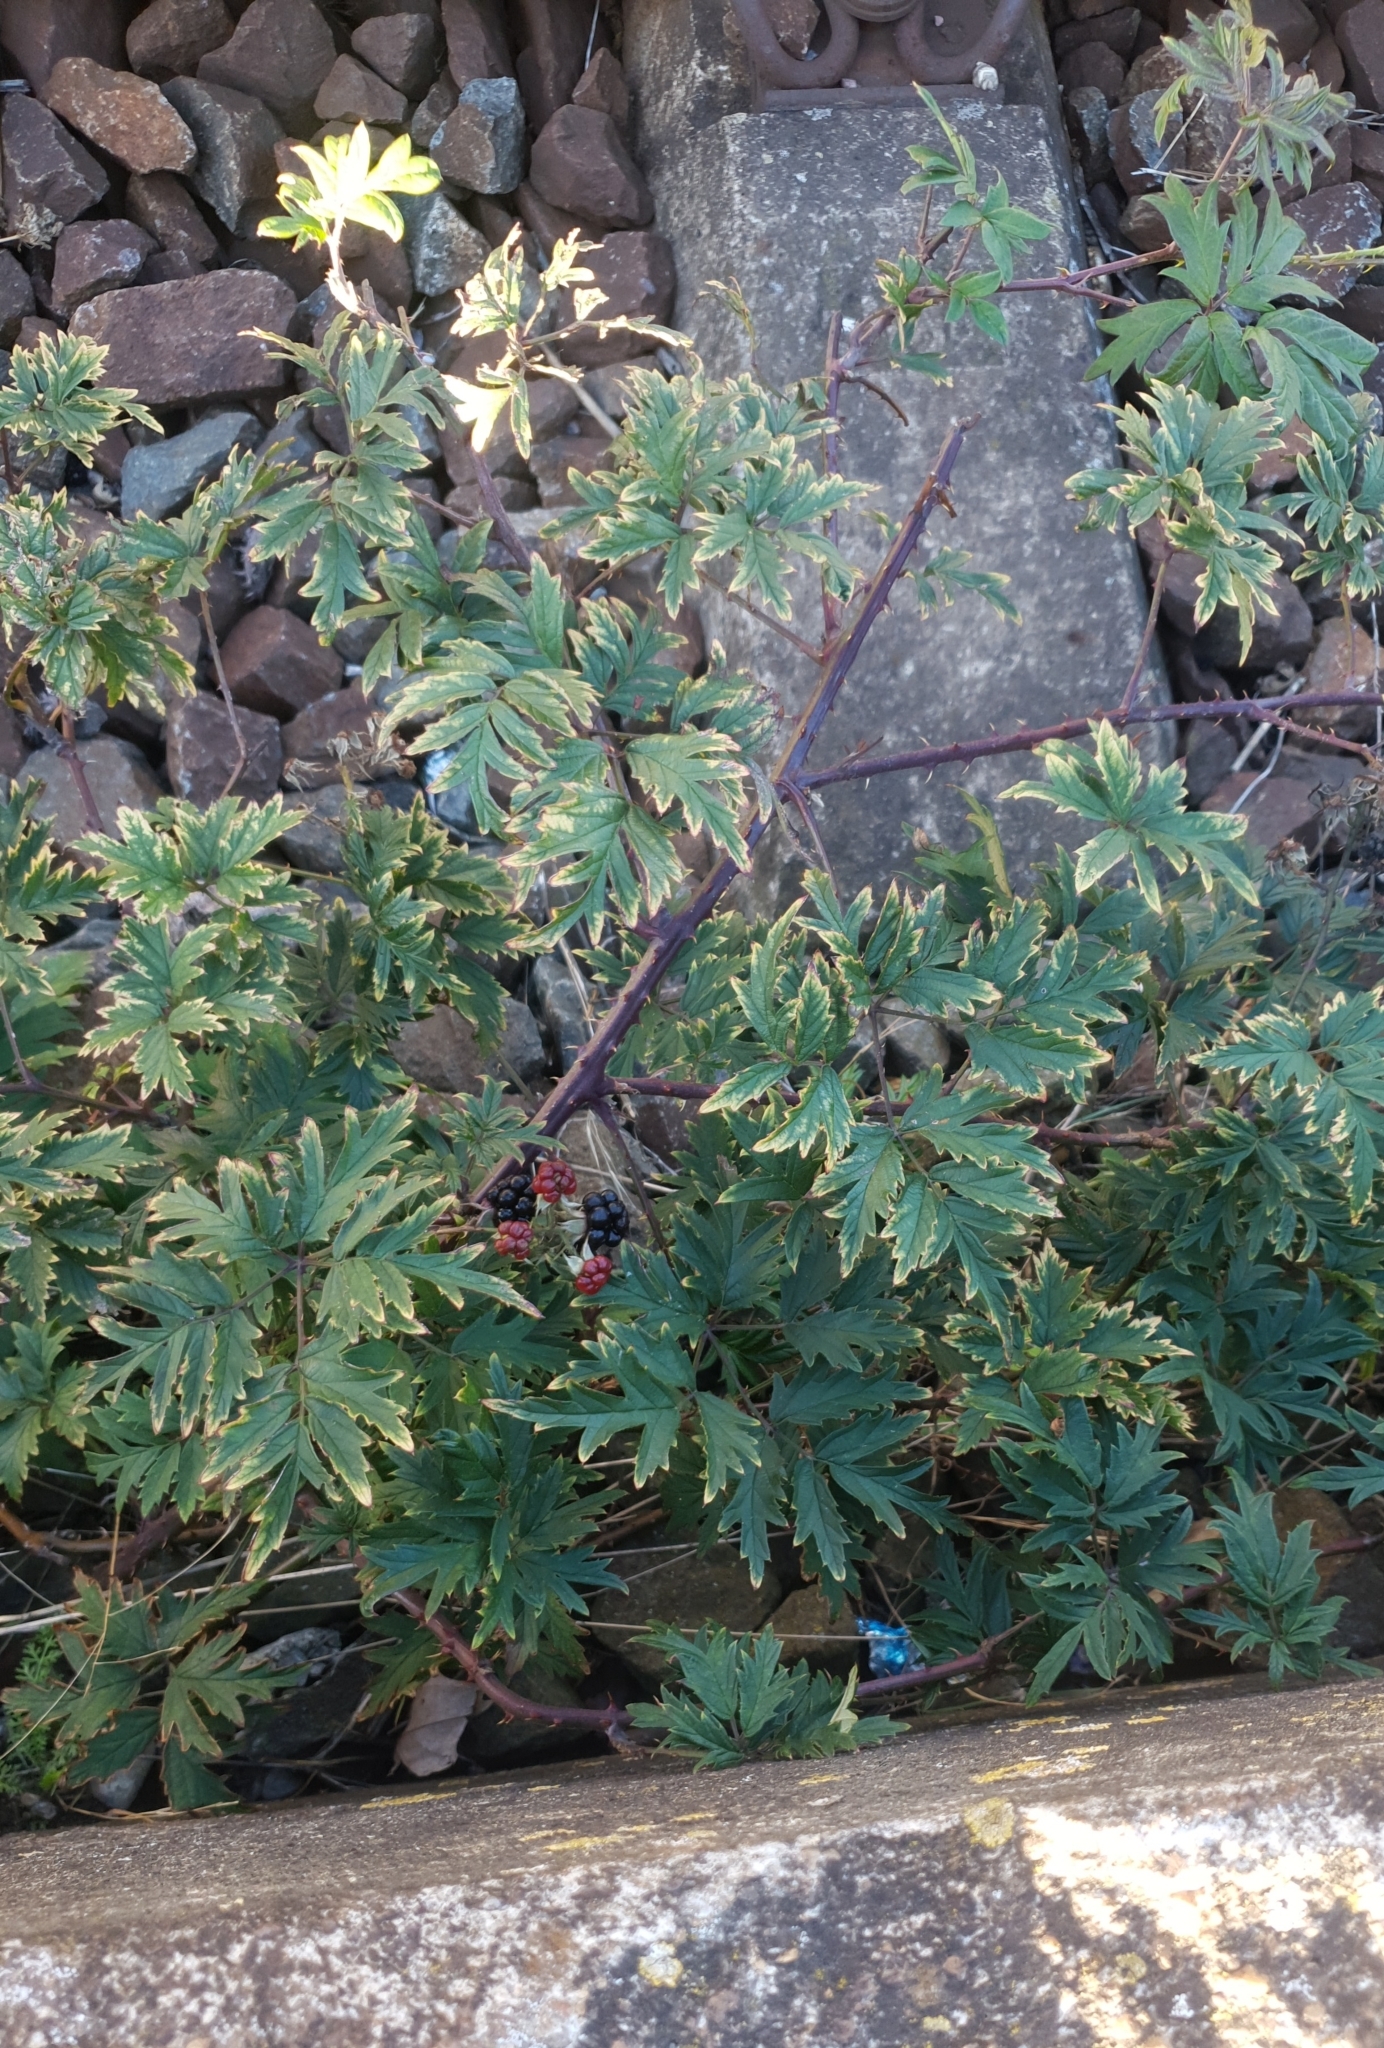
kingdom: Plantae
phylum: Tracheophyta
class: Magnoliopsida
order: Rosales
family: Rosaceae
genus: Rubus
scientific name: Rubus laciniatus
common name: Evergreen blackberry
